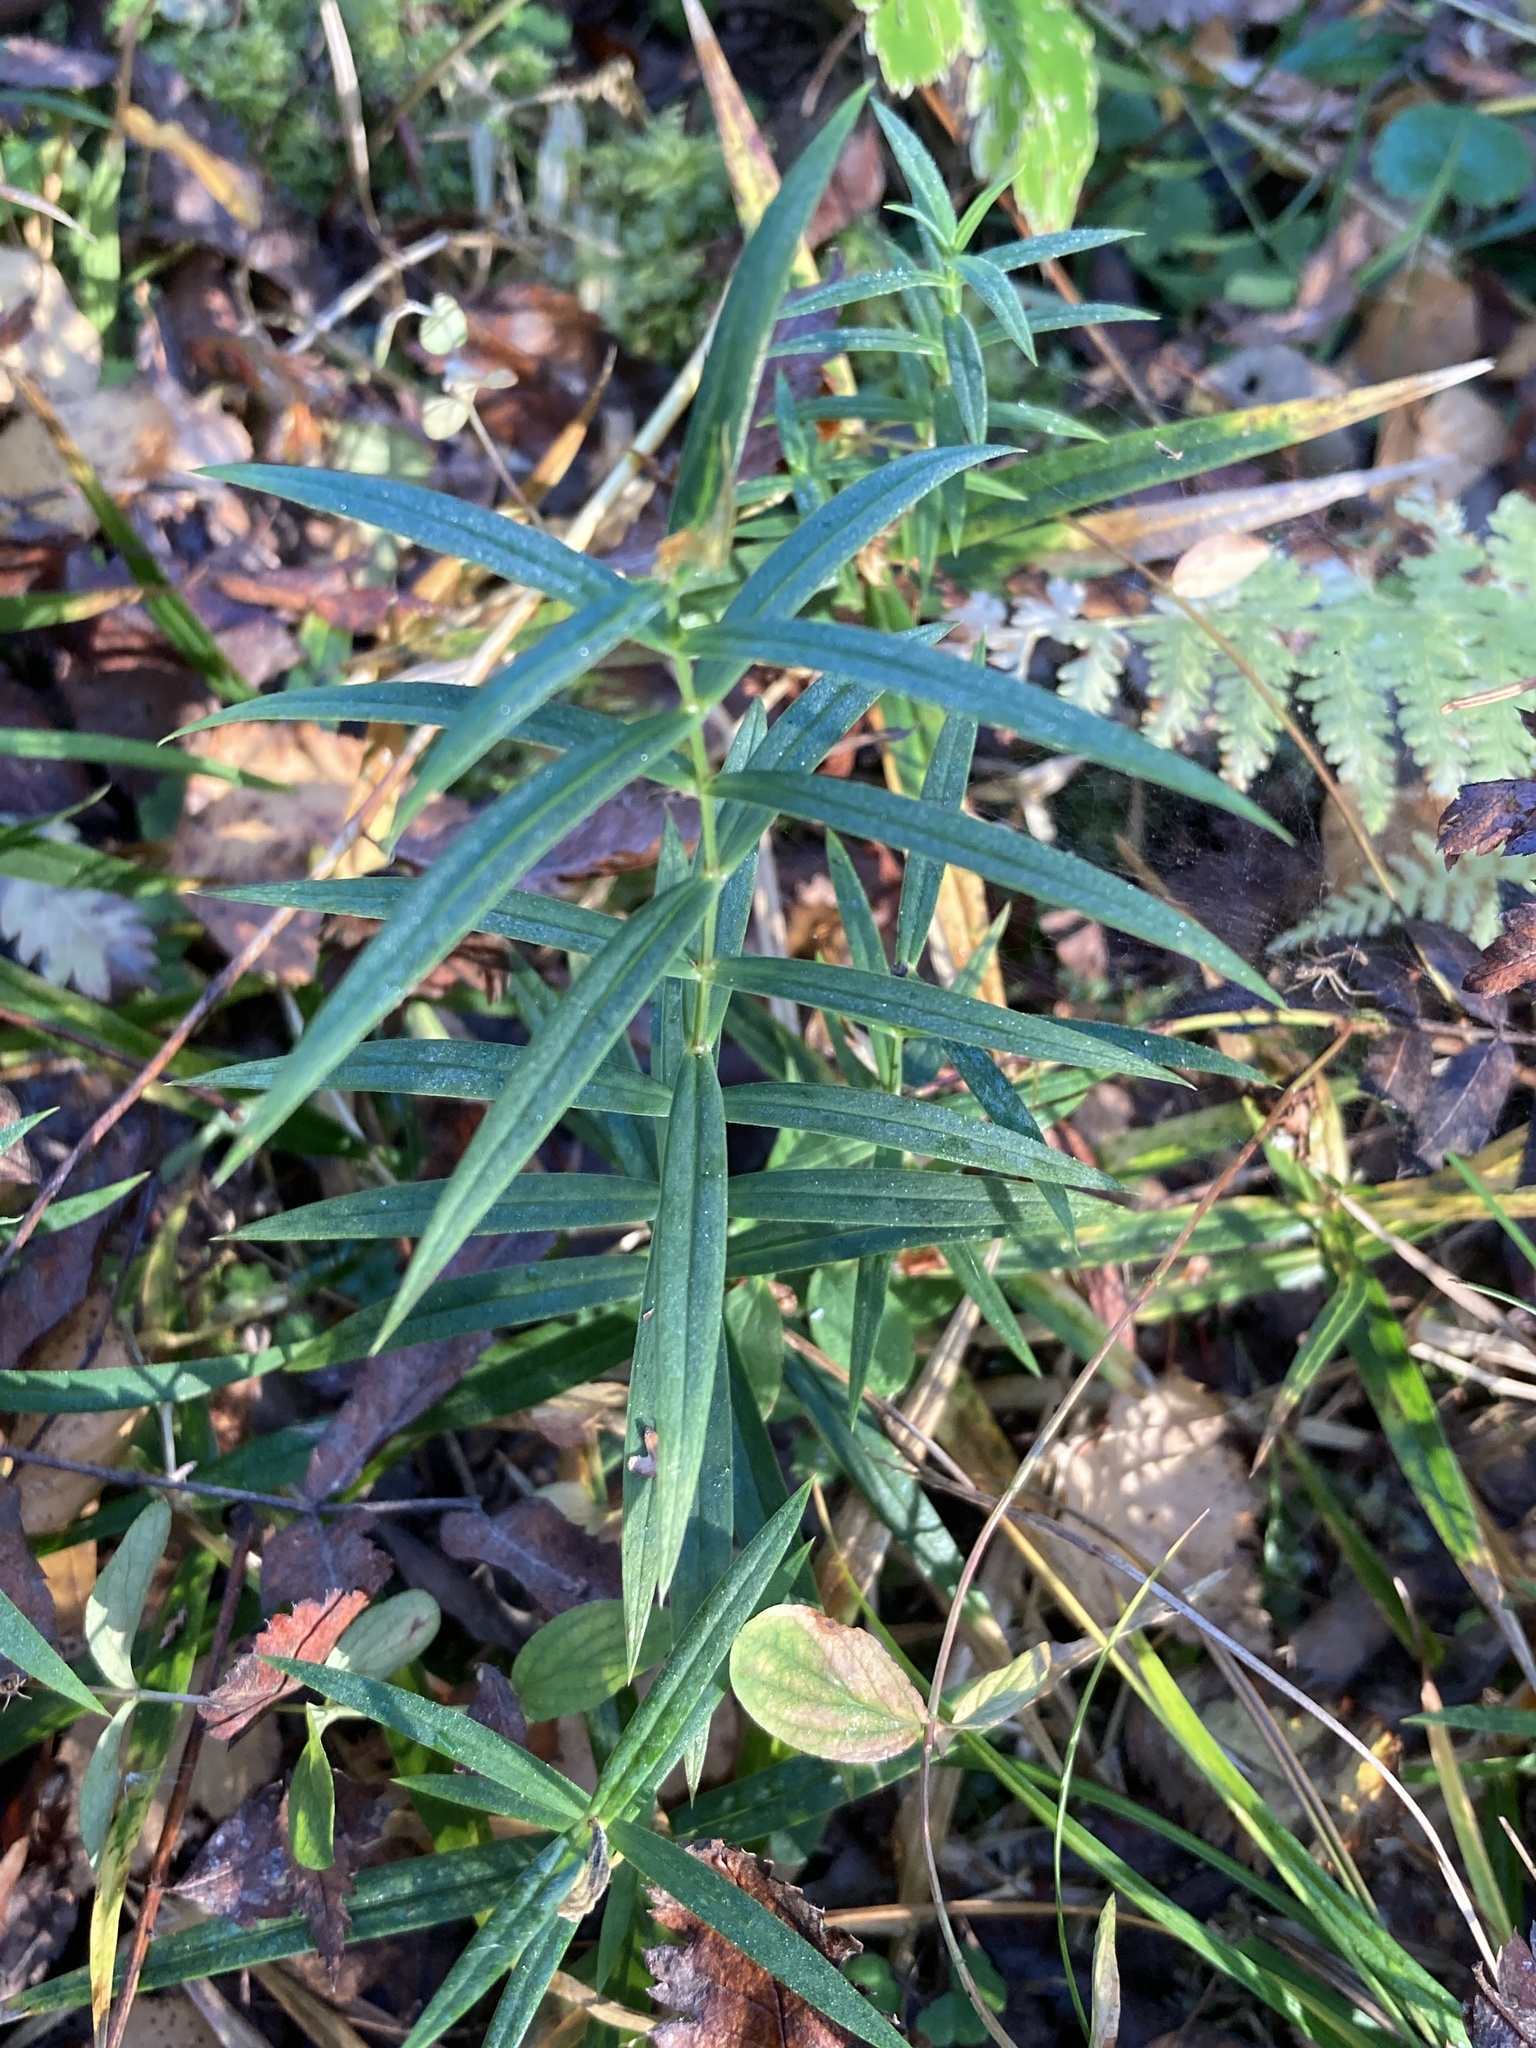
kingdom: Plantae
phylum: Tracheophyta
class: Magnoliopsida
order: Caryophyllales
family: Caryophyllaceae
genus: Rabelera
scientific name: Rabelera holostea
